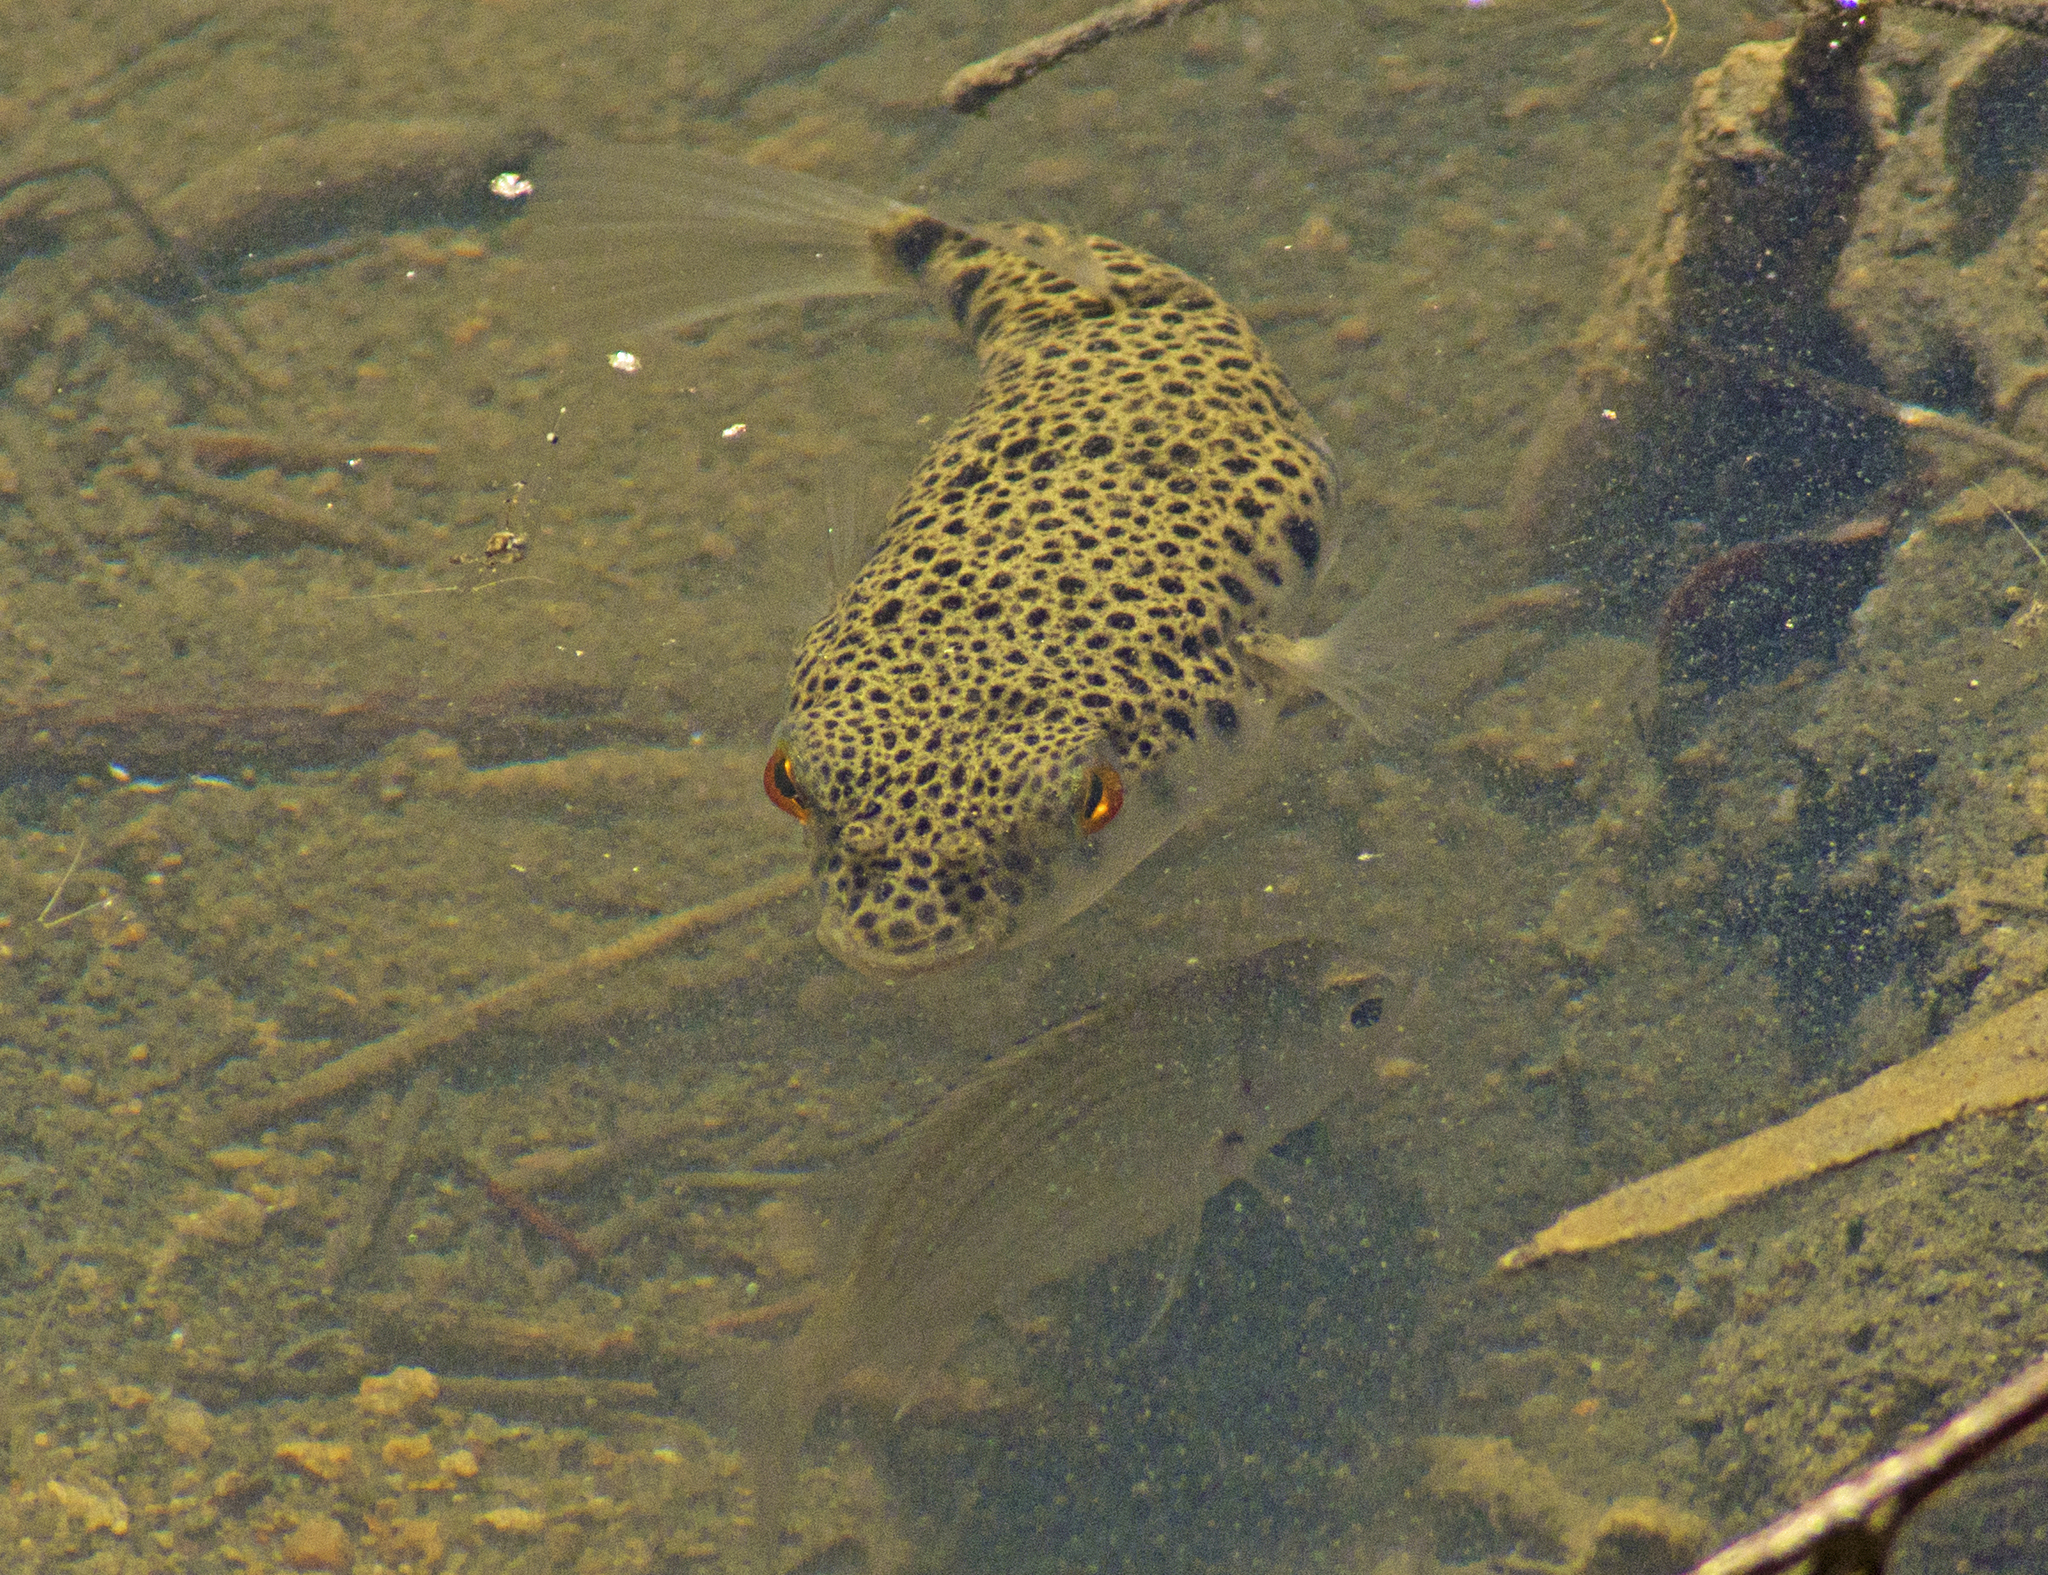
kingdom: Animalia
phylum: Chordata
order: Tetraodontiformes
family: Tetraodontidae
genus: Tetractenos
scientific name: Tetractenos hamiltoni
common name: Common toadfish
